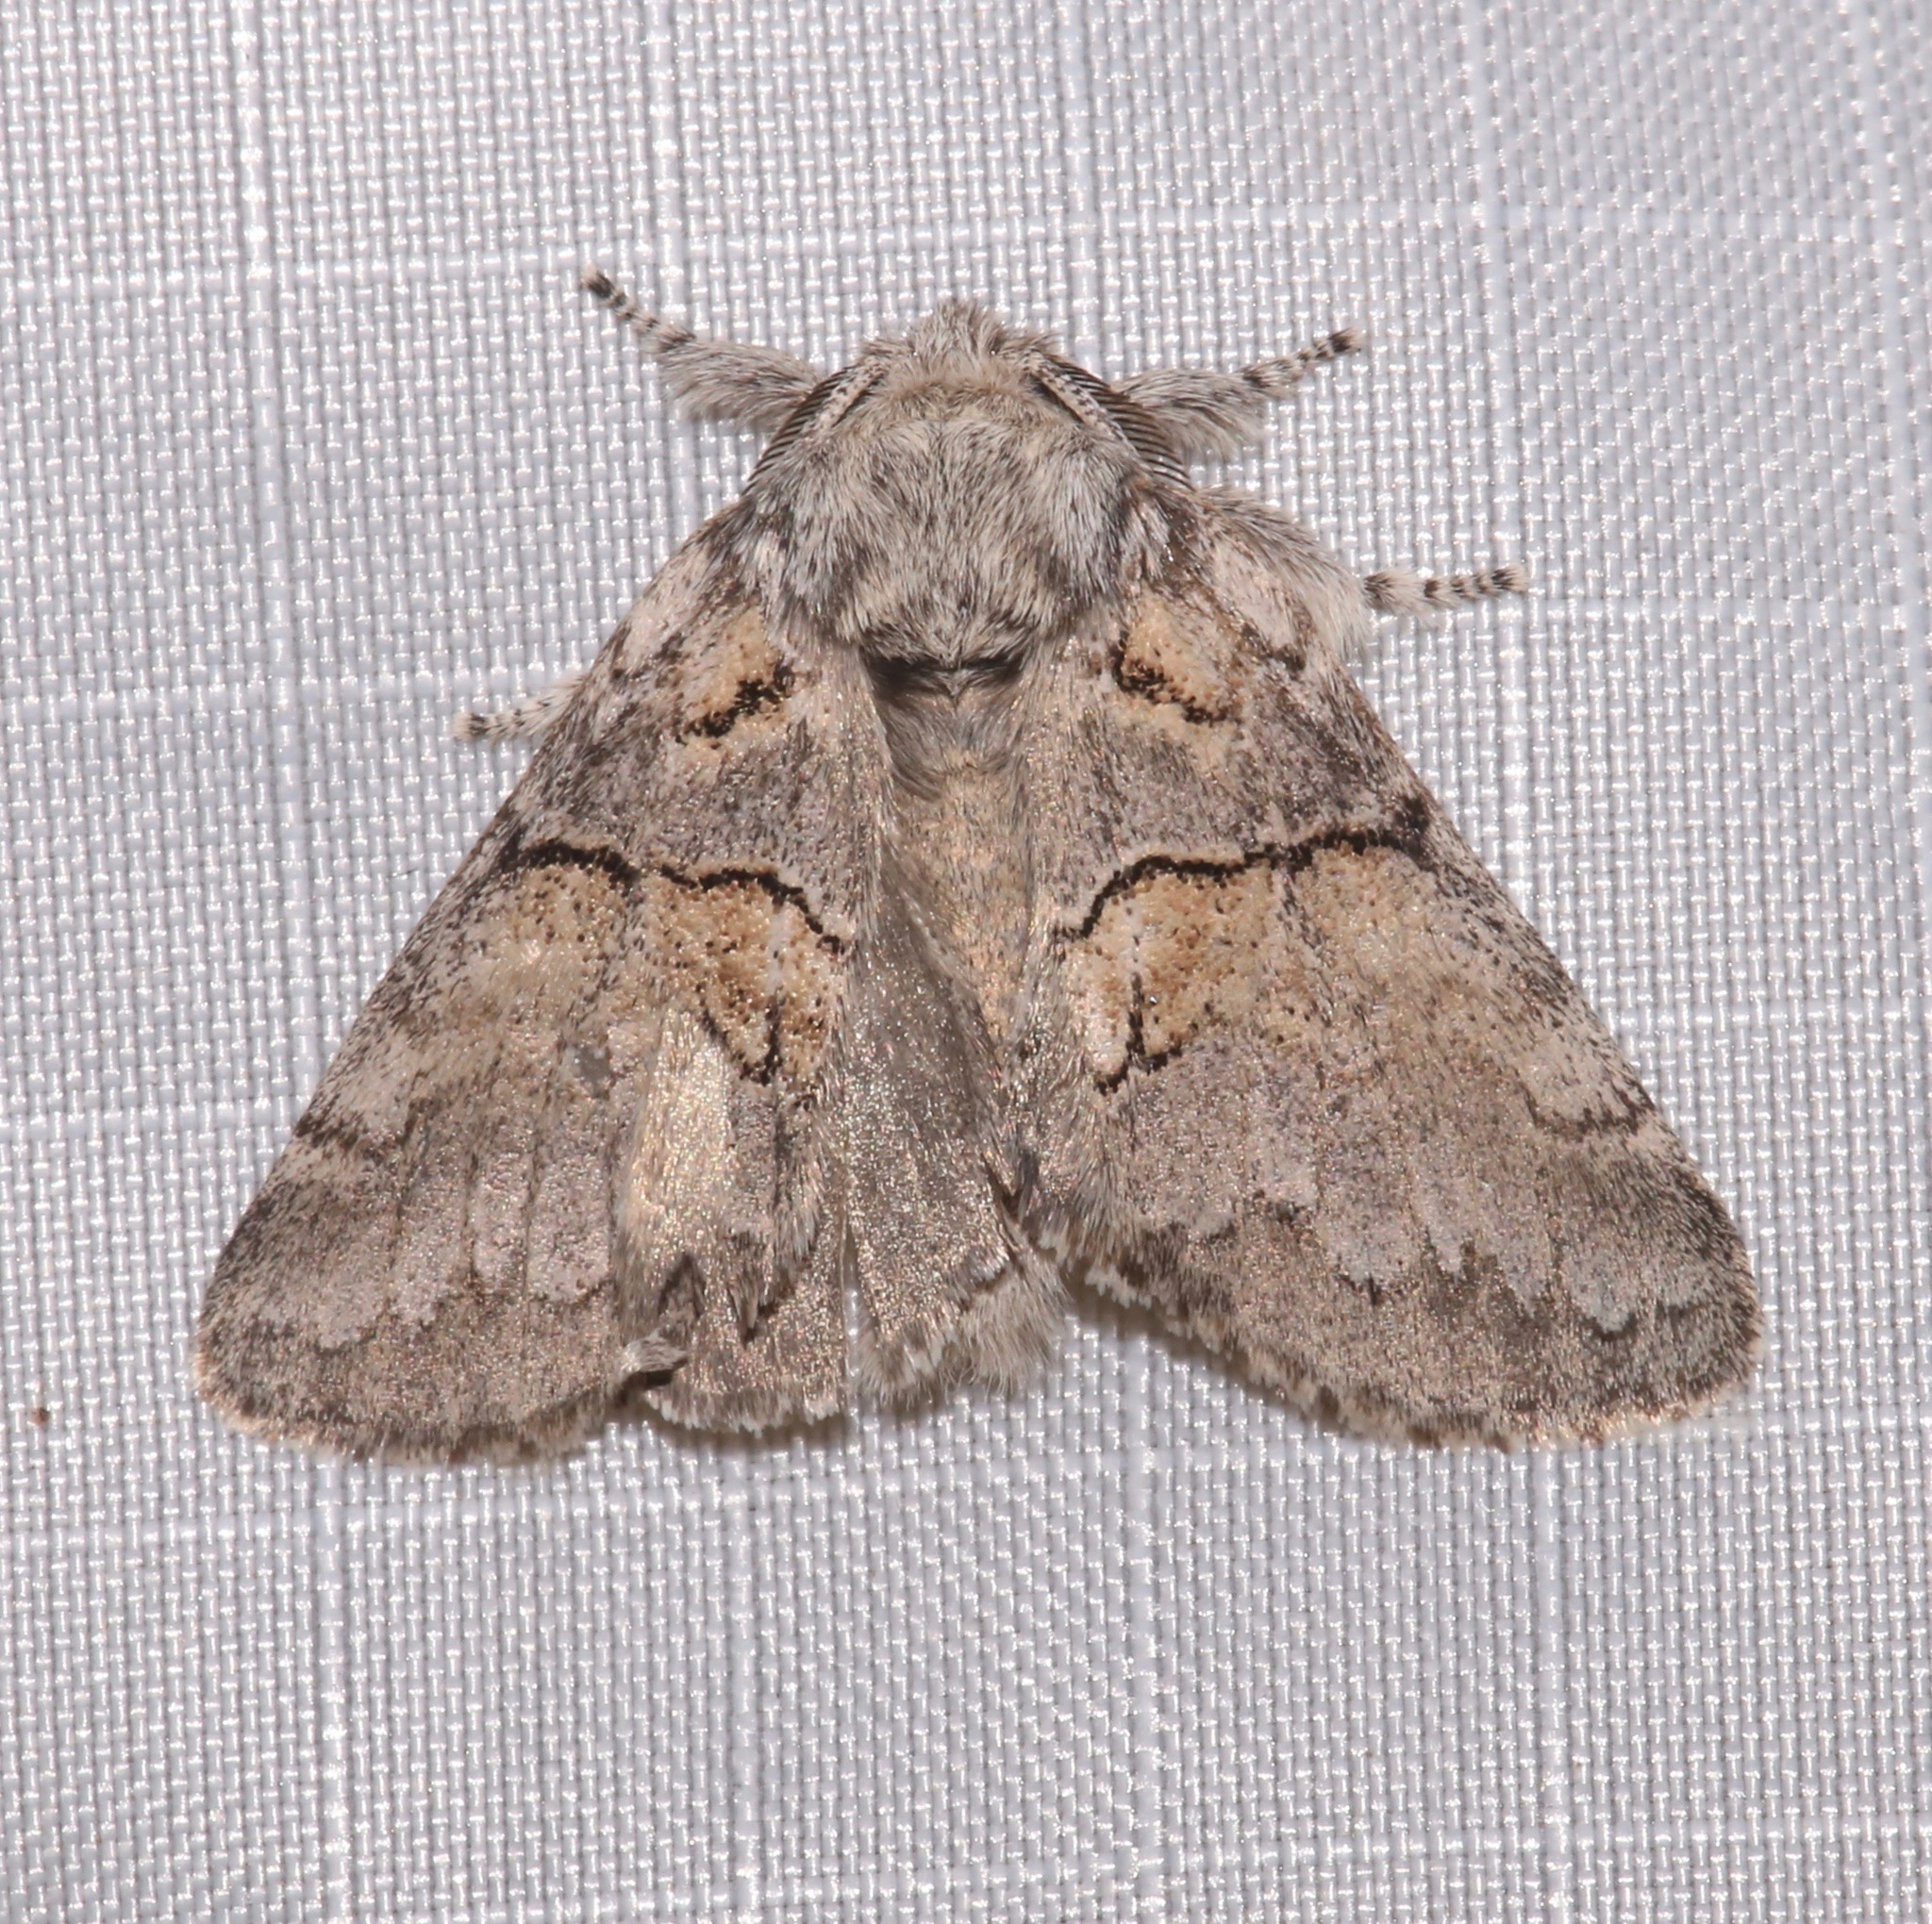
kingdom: Animalia
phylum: Arthropoda
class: Insecta
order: Lepidoptera
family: Notodontidae
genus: Gluphisia
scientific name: Gluphisia septentrionis
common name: Common gluphisia
